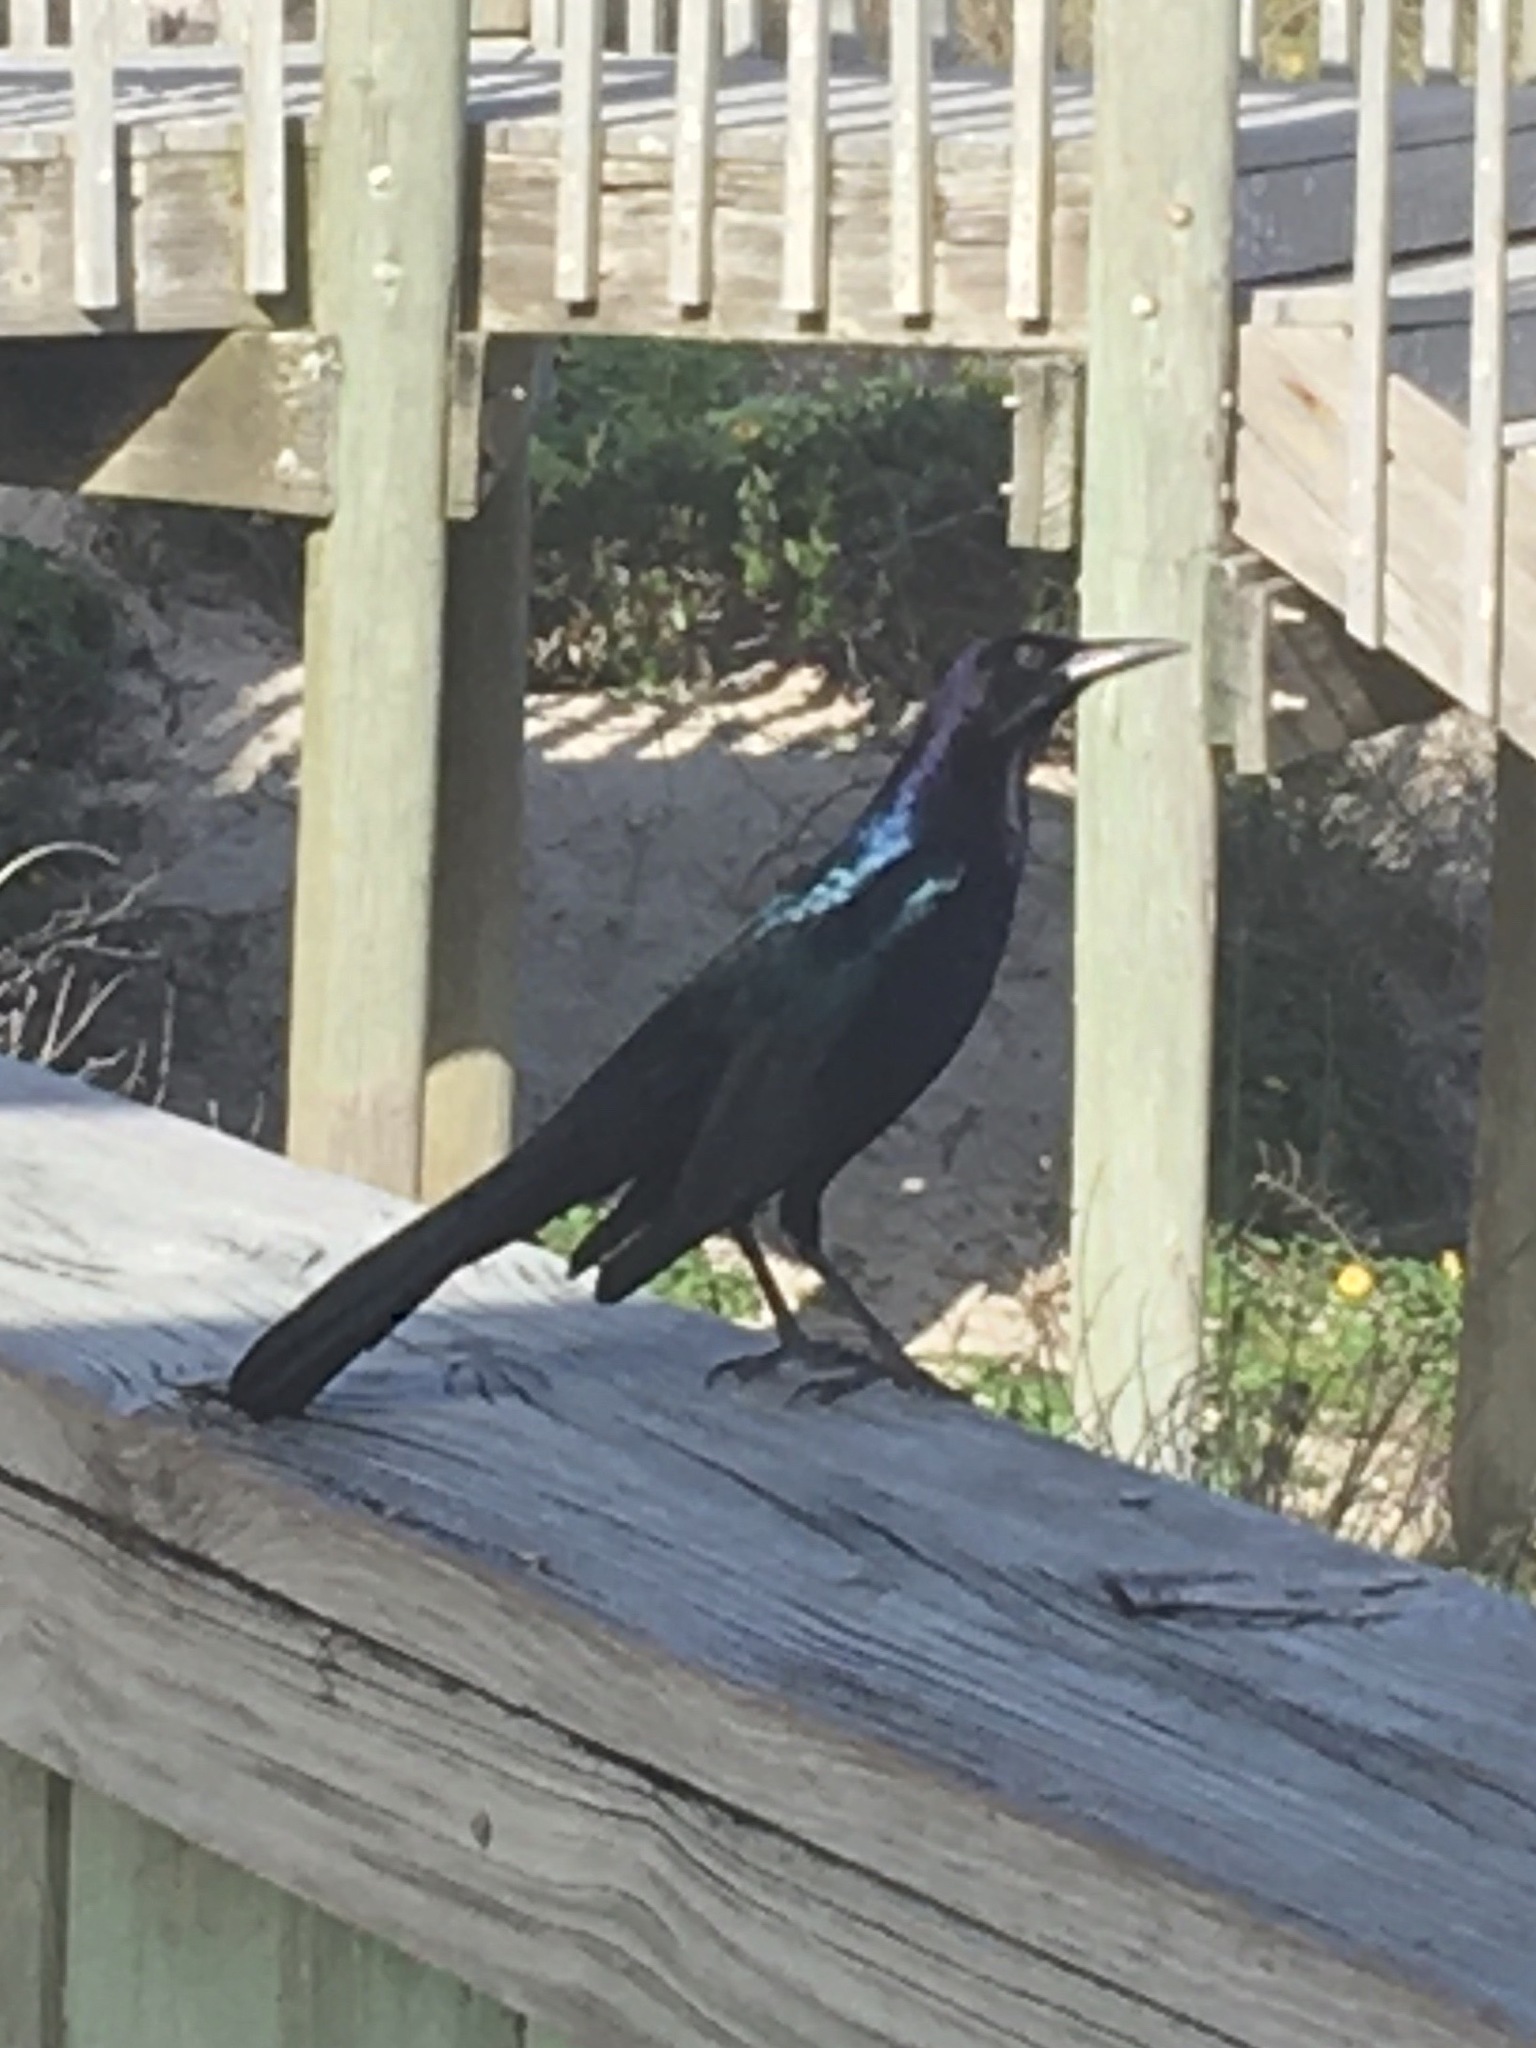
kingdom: Animalia
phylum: Chordata
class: Aves
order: Passeriformes
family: Icteridae
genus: Quiscalus
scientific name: Quiscalus major
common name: Boat-tailed grackle
